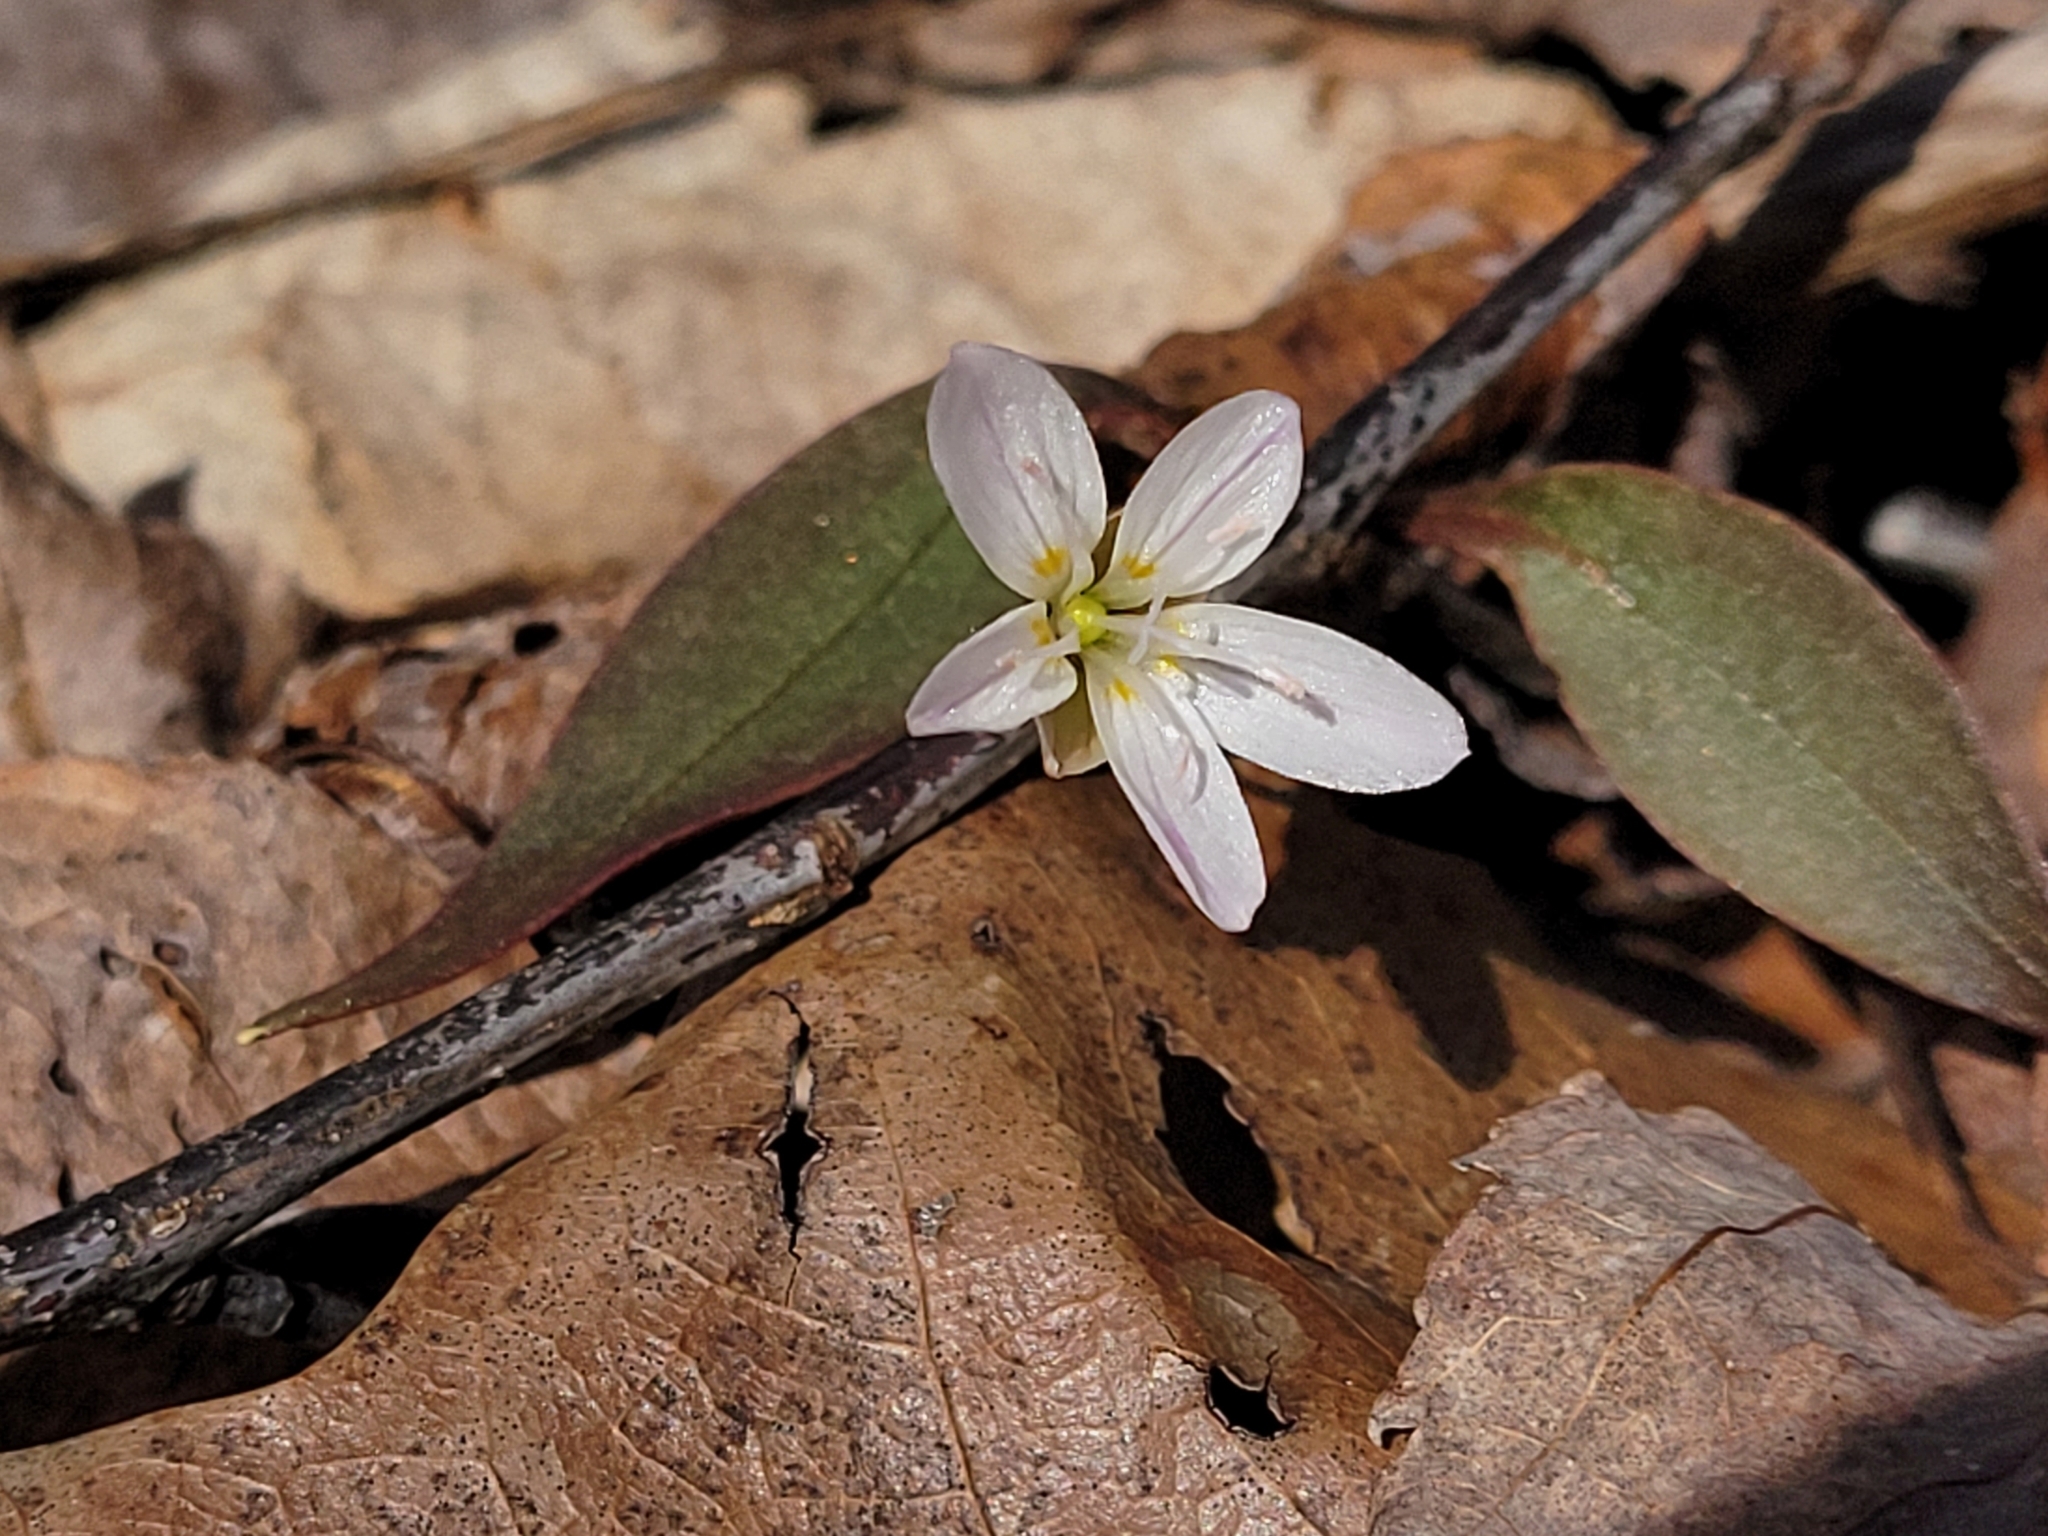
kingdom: Plantae
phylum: Tracheophyta
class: Magnoliopsida
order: Caryophyllales
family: Montiaceae
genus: Claytonia
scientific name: Claytonia caroliniana
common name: Carolina spring beauty
